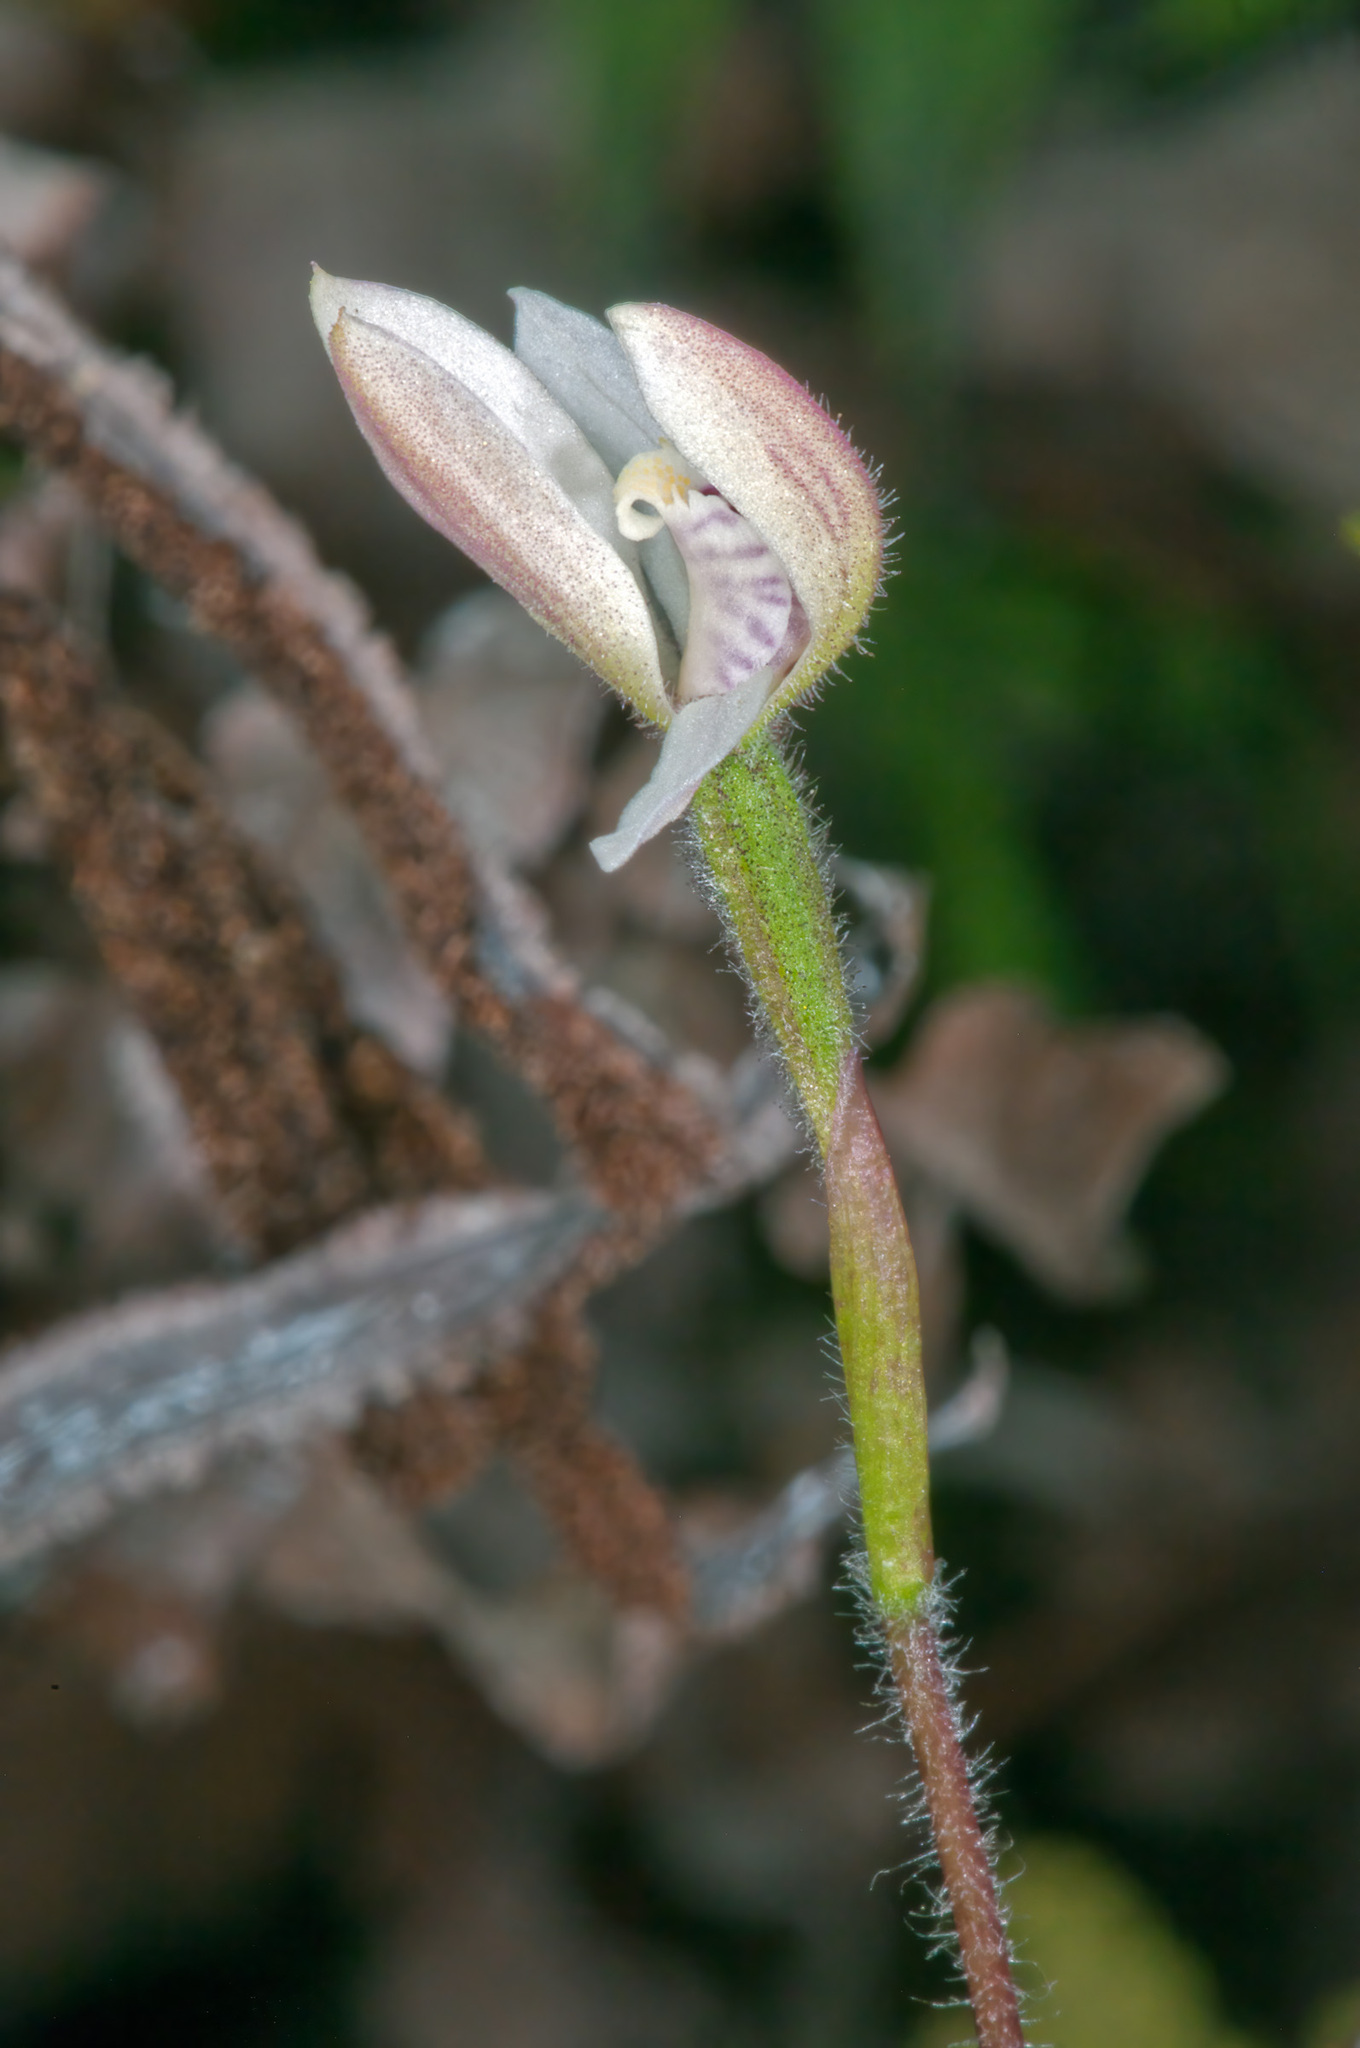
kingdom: Plantae
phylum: Tracheophyta
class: Liliopsida
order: Asparagales
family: Orchidaceae
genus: Caladenia
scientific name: Caladenia lyallii
